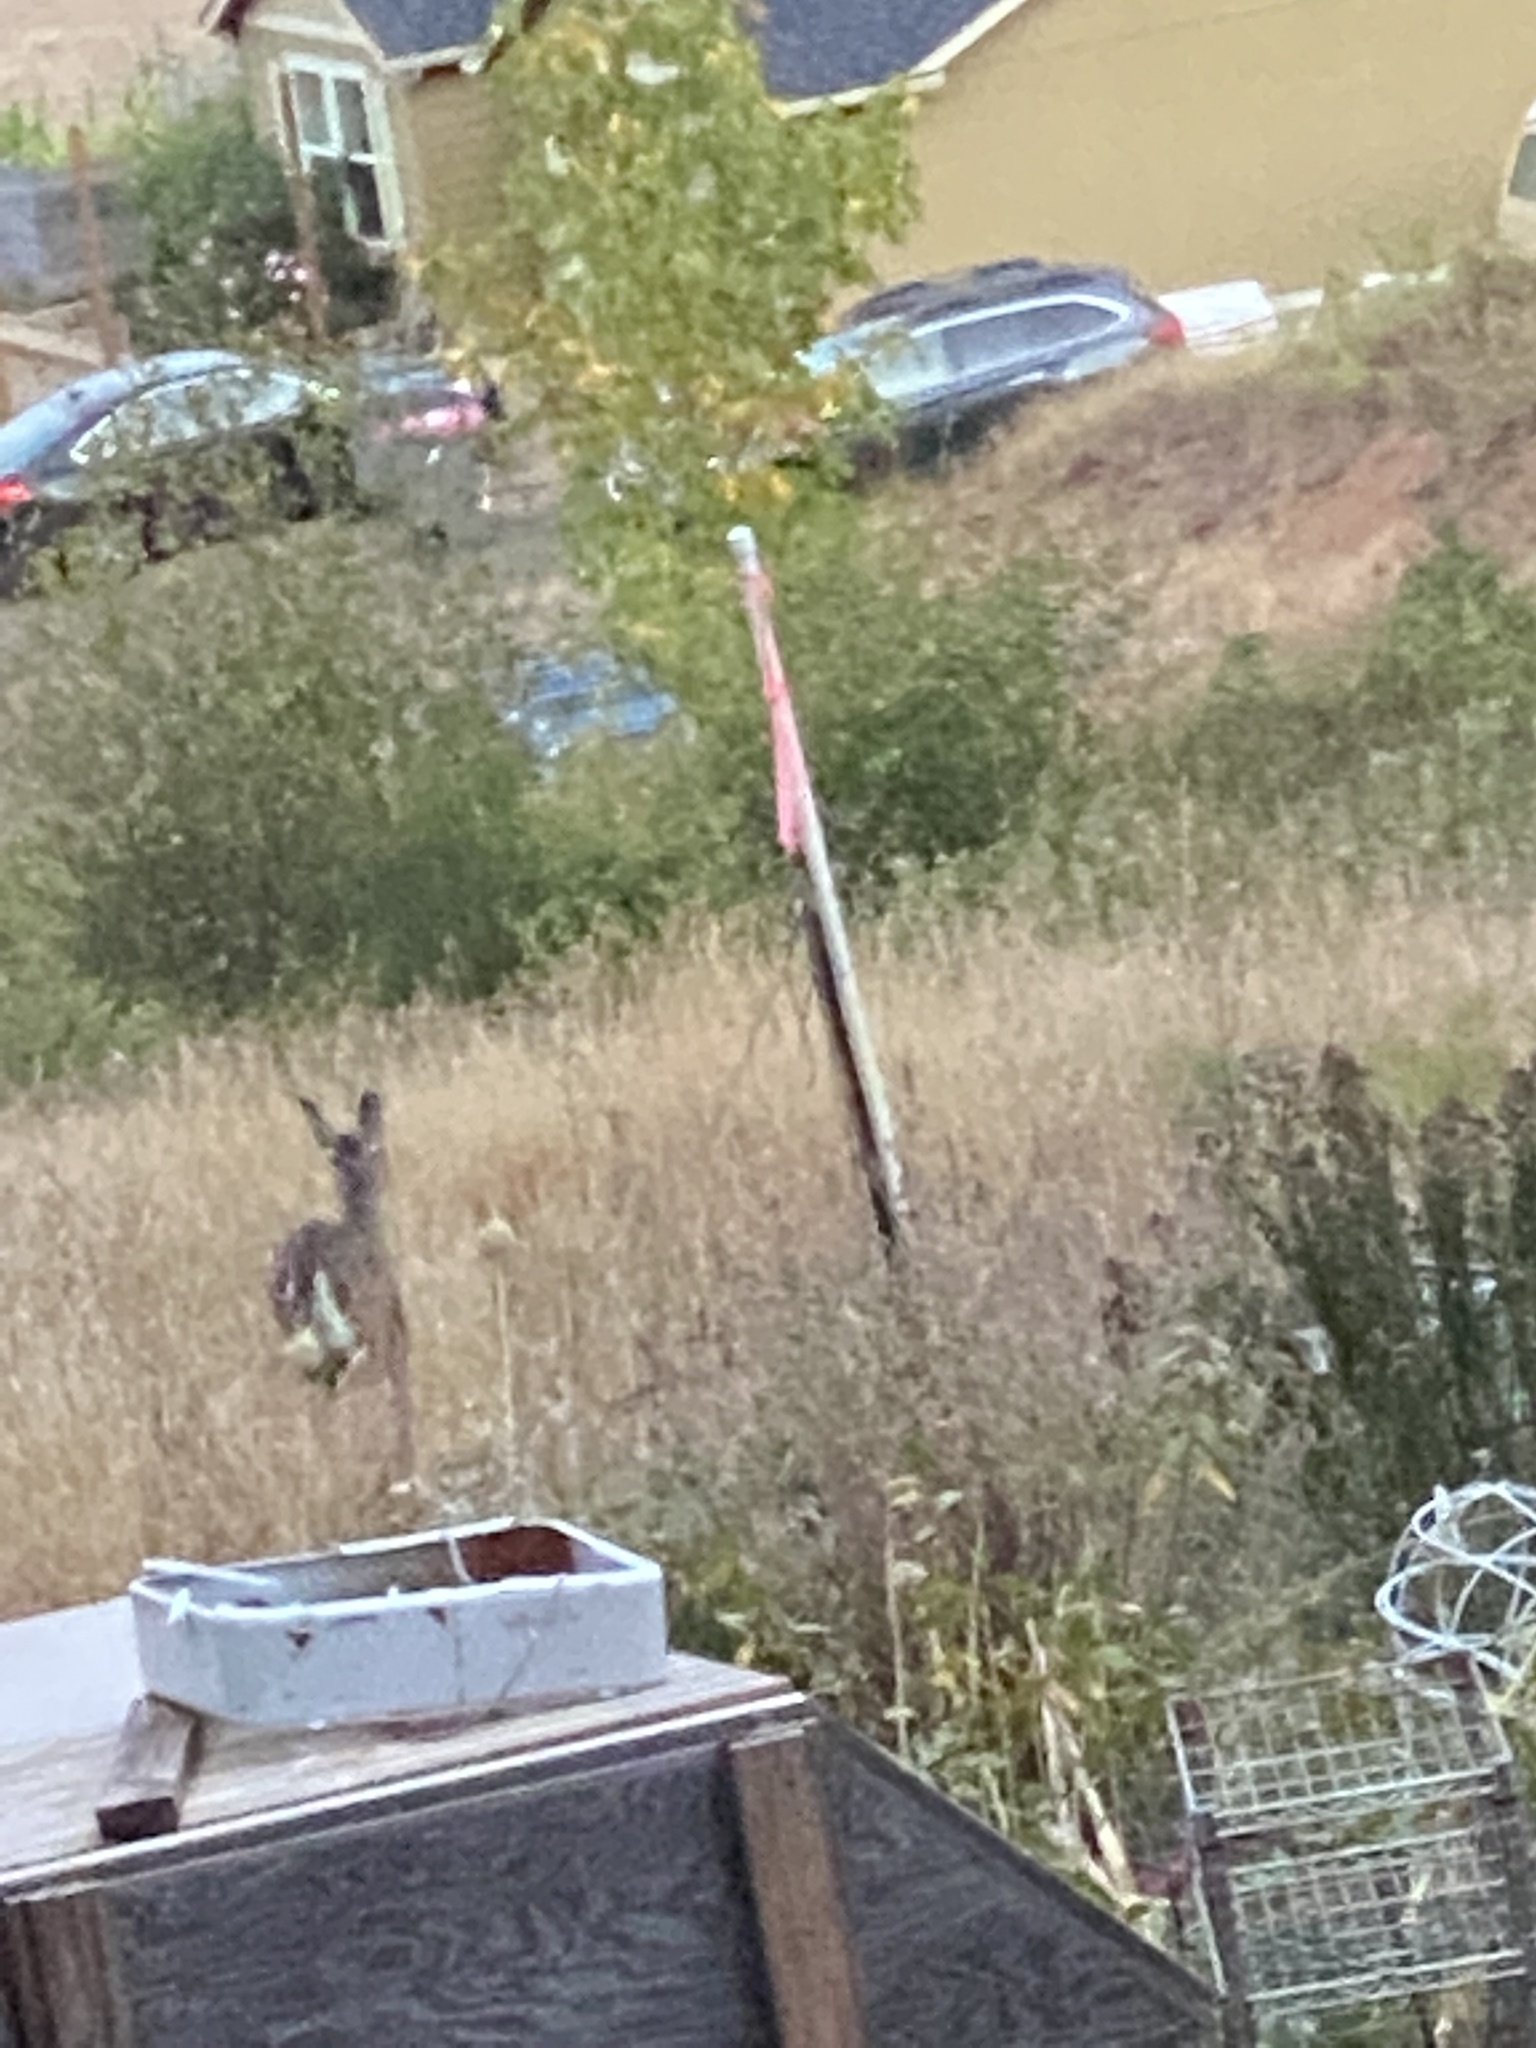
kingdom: Animalia
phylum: Chordata
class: Mammalia
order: Artiodactyla
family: Cervidae
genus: Odocoileus
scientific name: Odocoileus hemionus
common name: Mule deer
